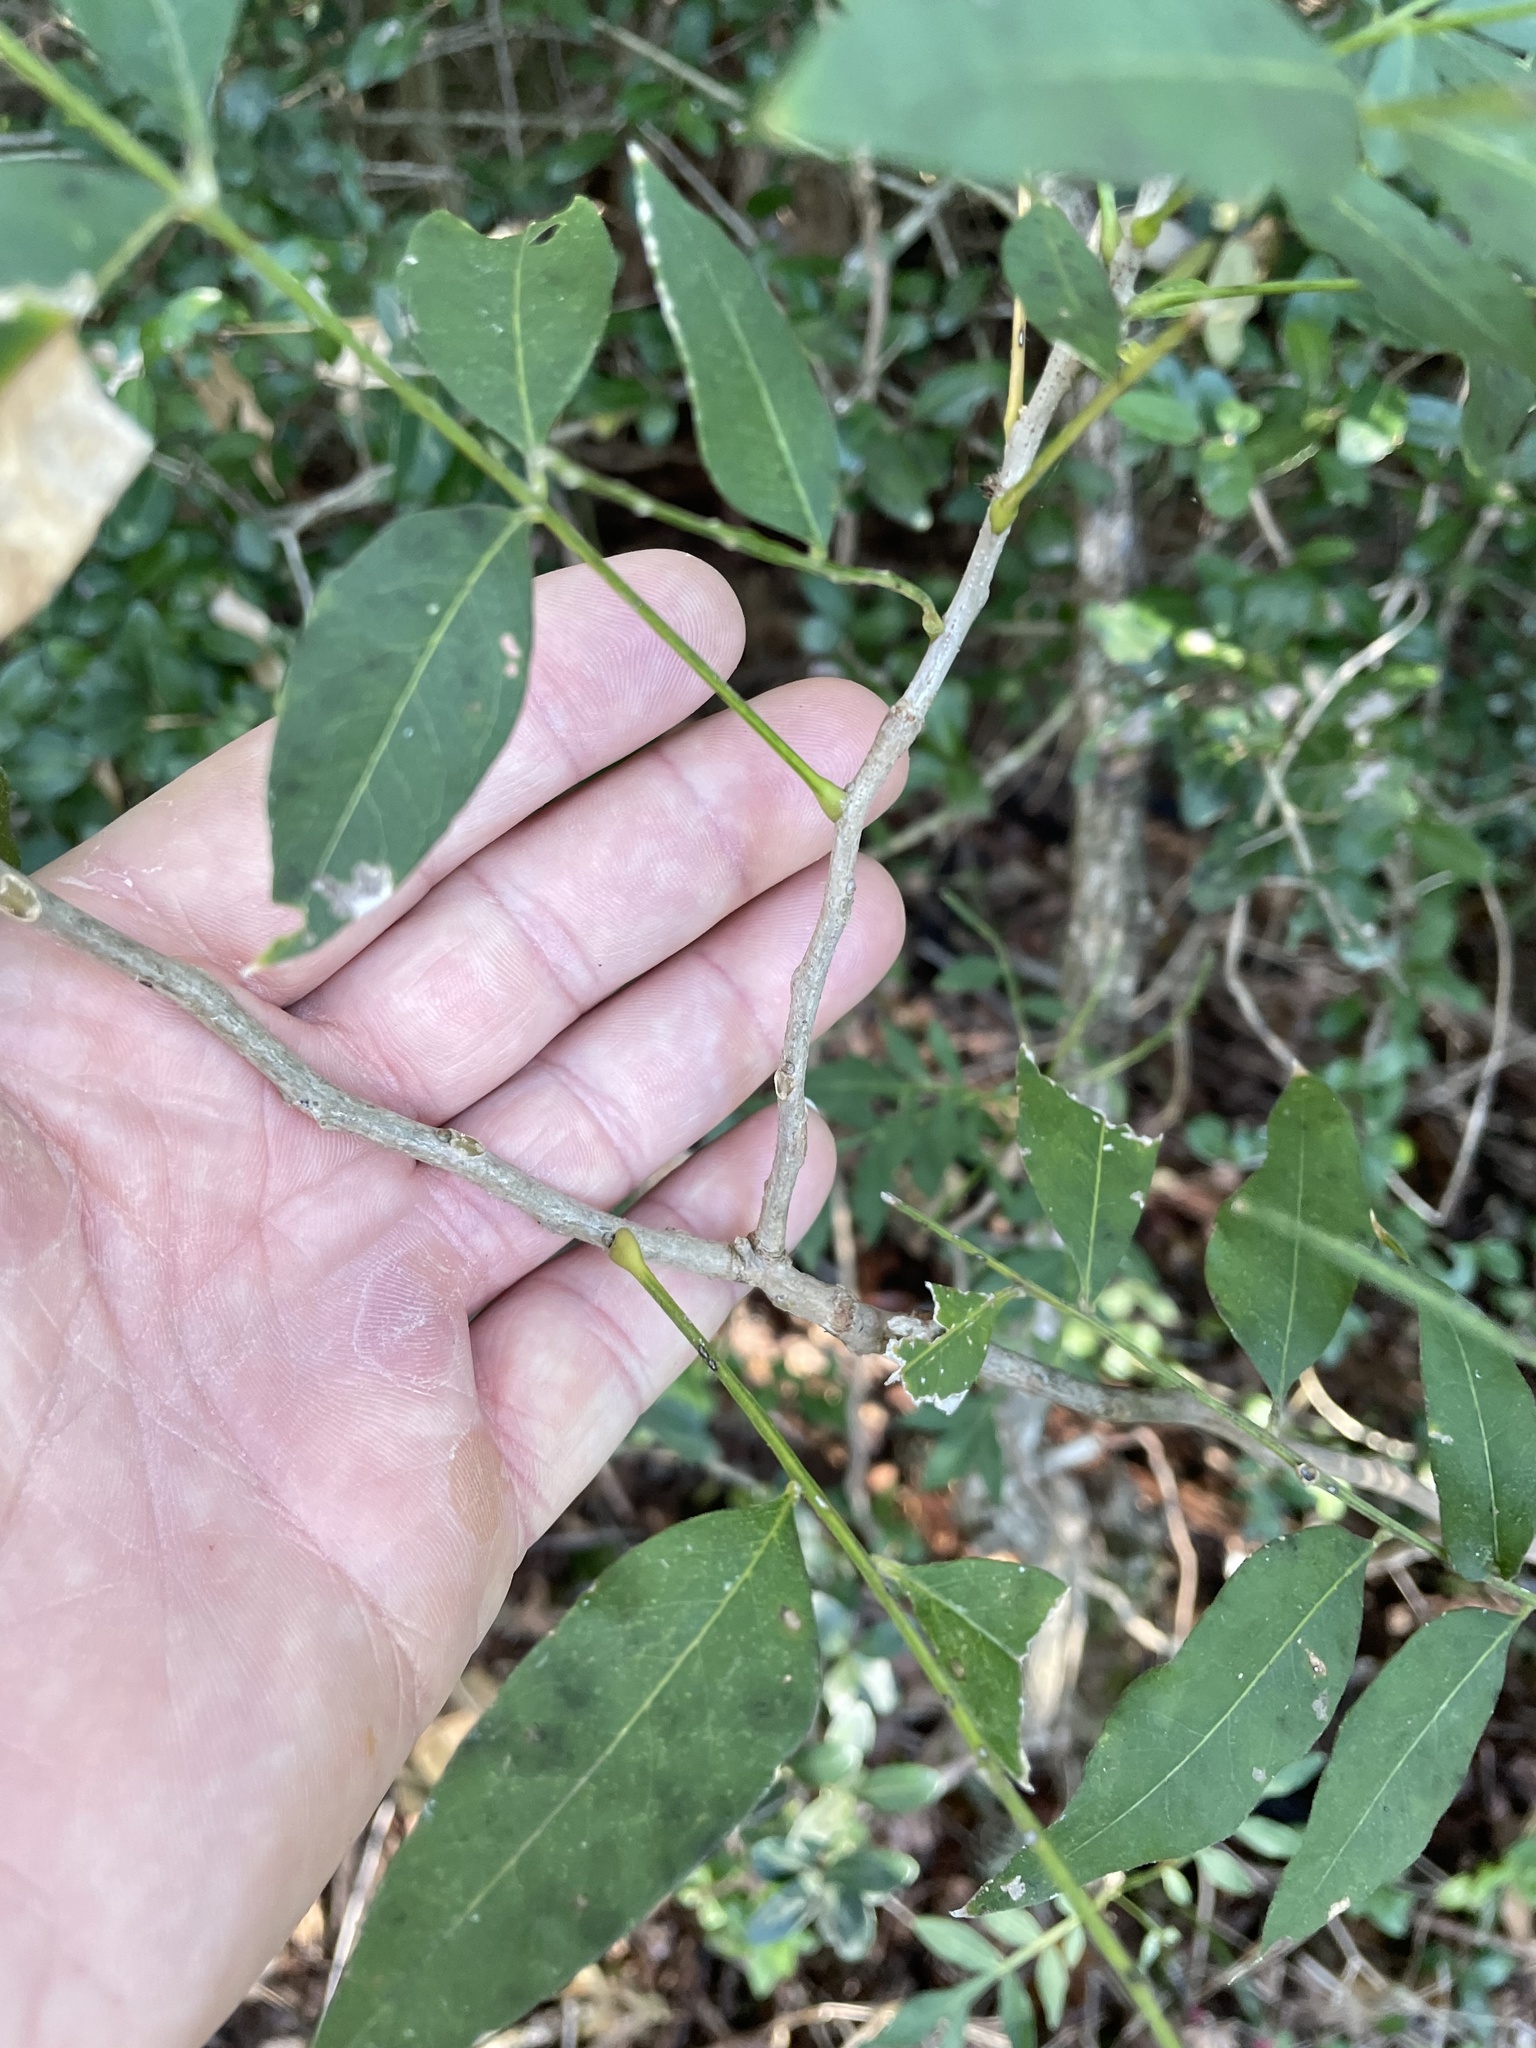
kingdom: Plantae
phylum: Tracheophyta
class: Magnoliopsida
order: Sapindales
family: Sapindaceae
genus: Sapindus
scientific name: Sapindus drummondii
